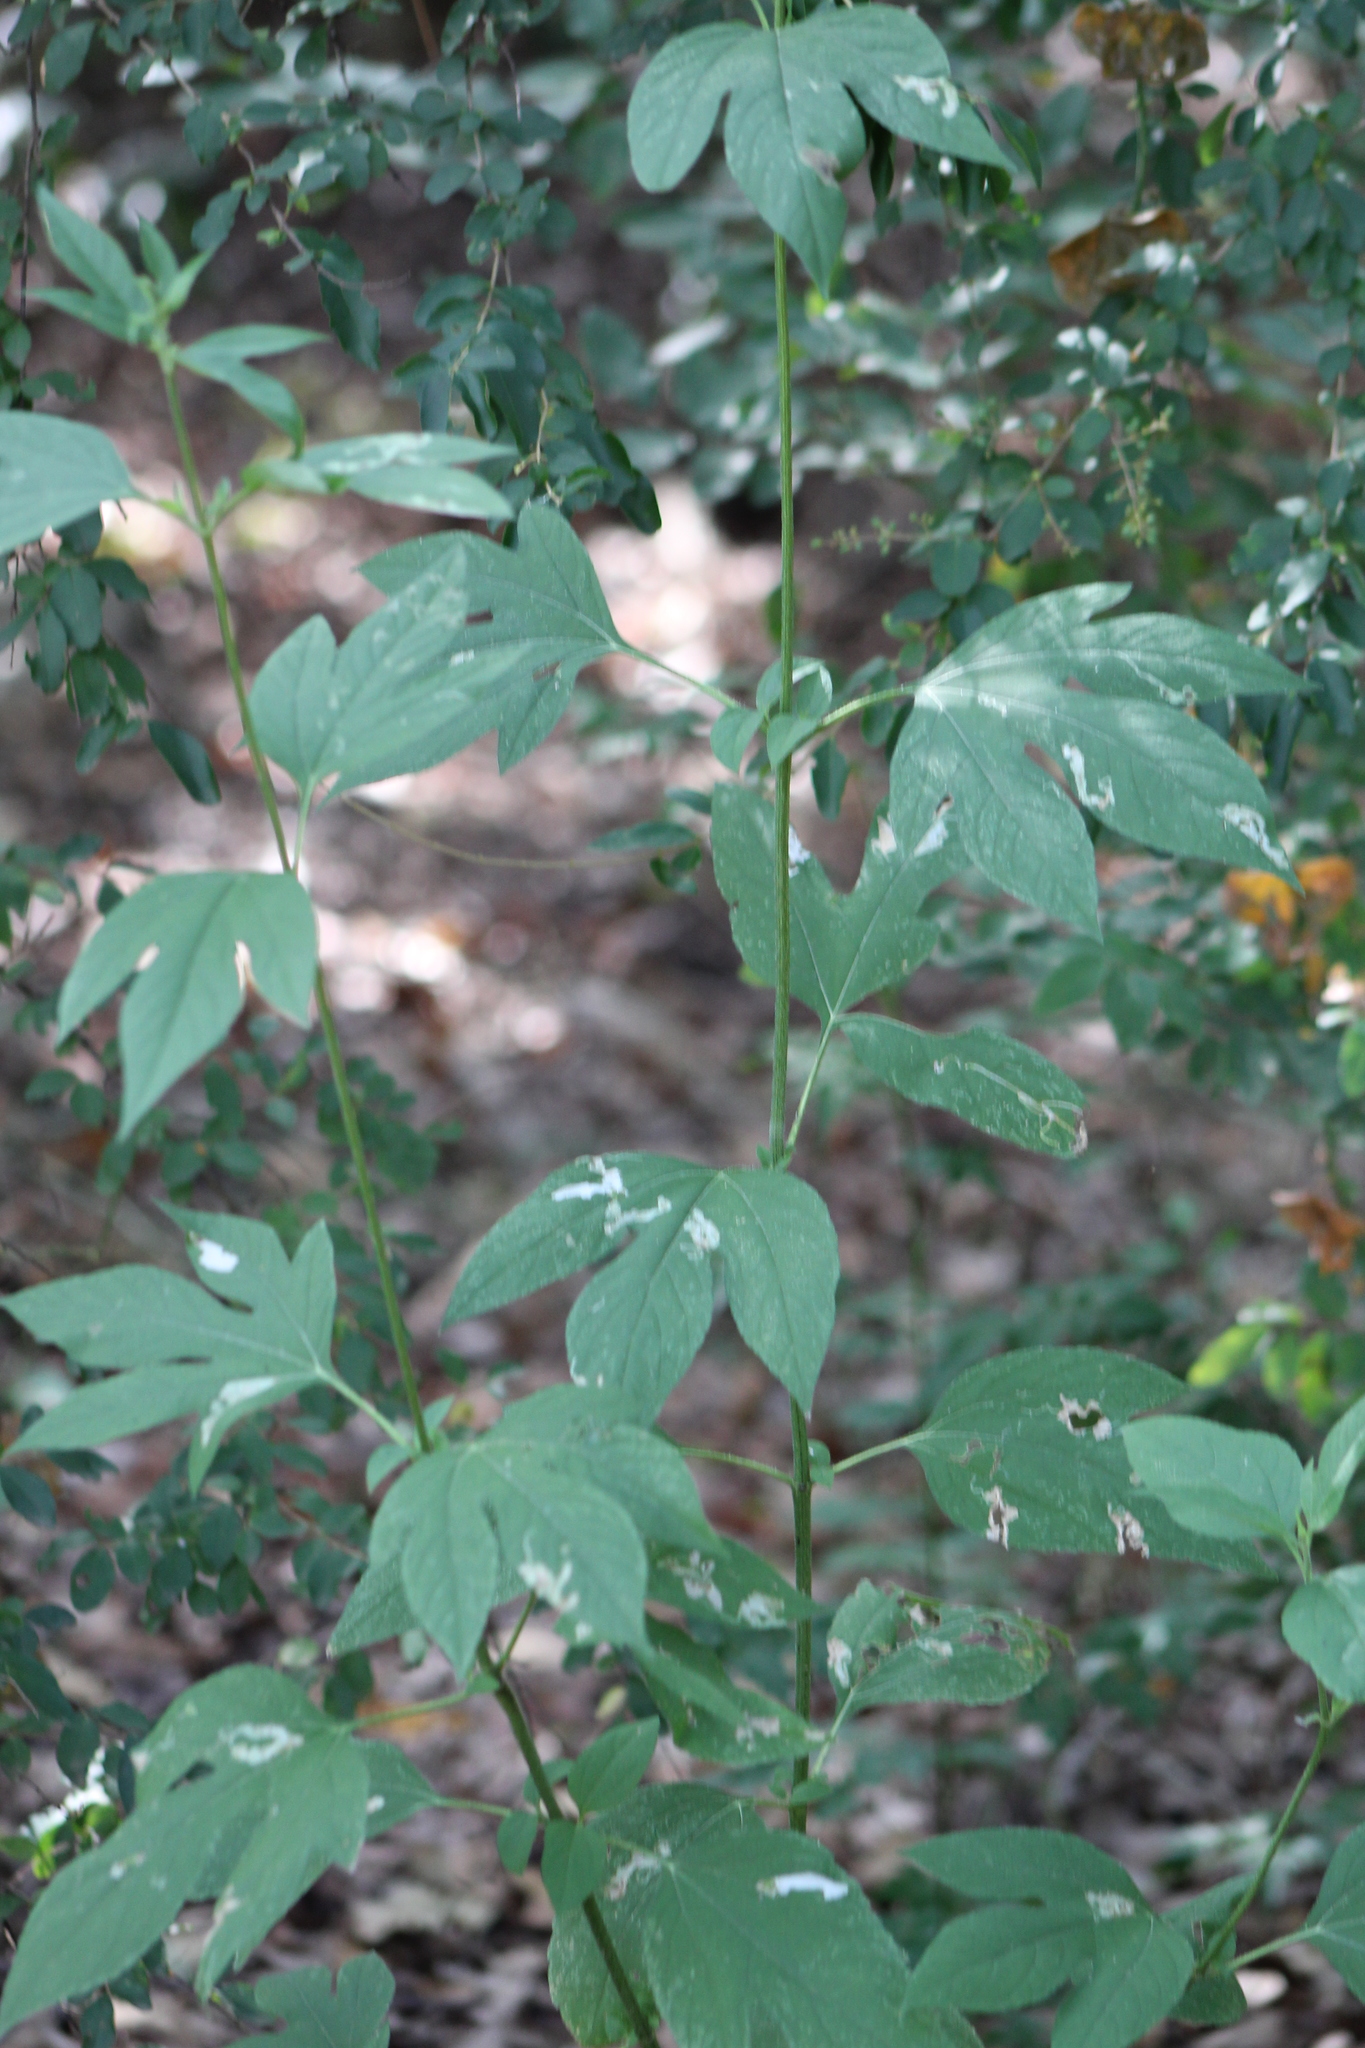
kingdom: Plantae
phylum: Tracheophyta
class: Magnoliopsida
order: Asterales
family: Asteraceae
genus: Ambrosia
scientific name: Ambrosia trifida
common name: Giant ragweed
